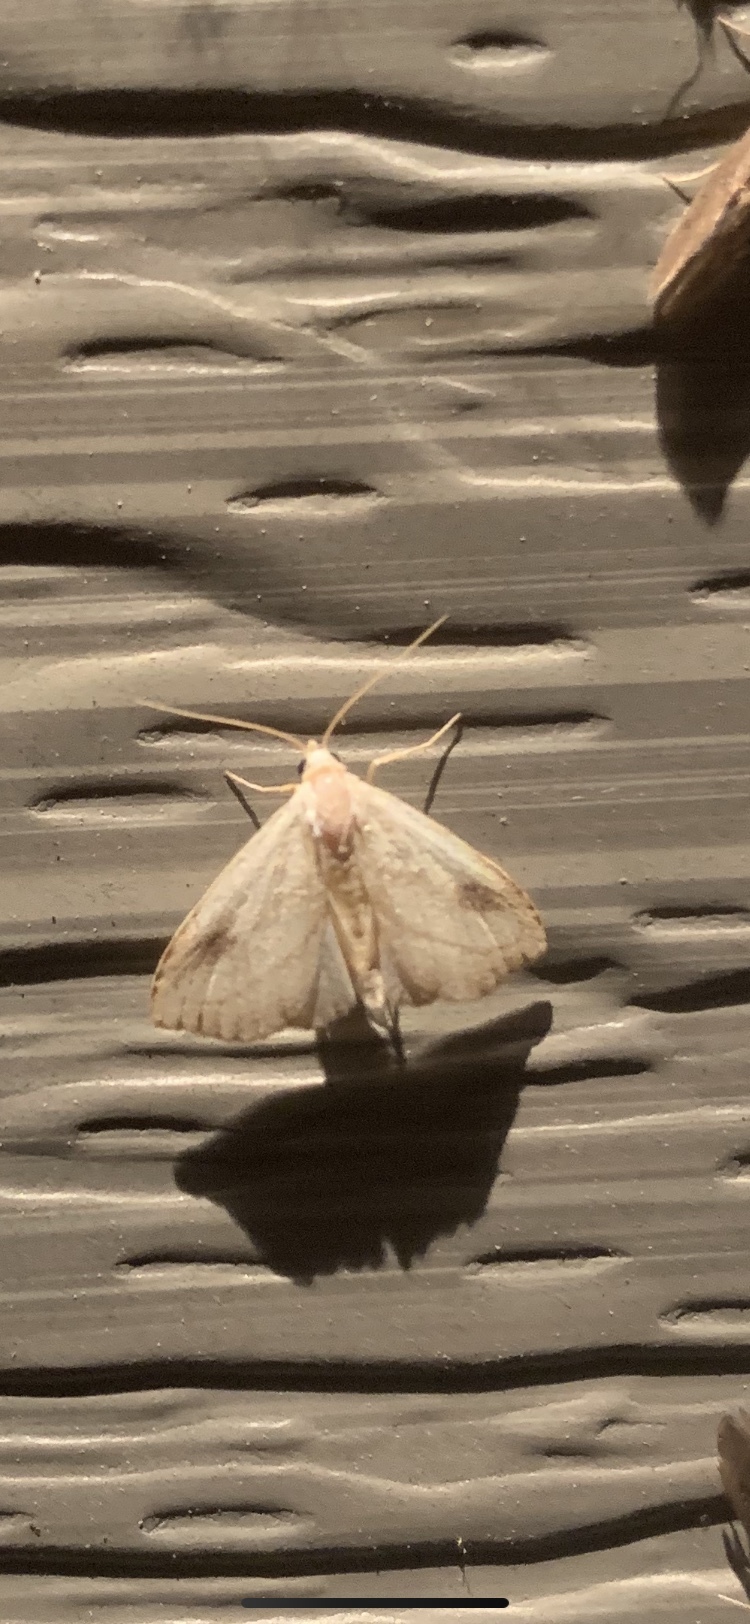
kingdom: Animalia
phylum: Arthropoda
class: Insecta
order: Lepidoptera
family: Erebidae
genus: Rivula
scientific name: Rivula propinqualis
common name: Spotted grass moth
